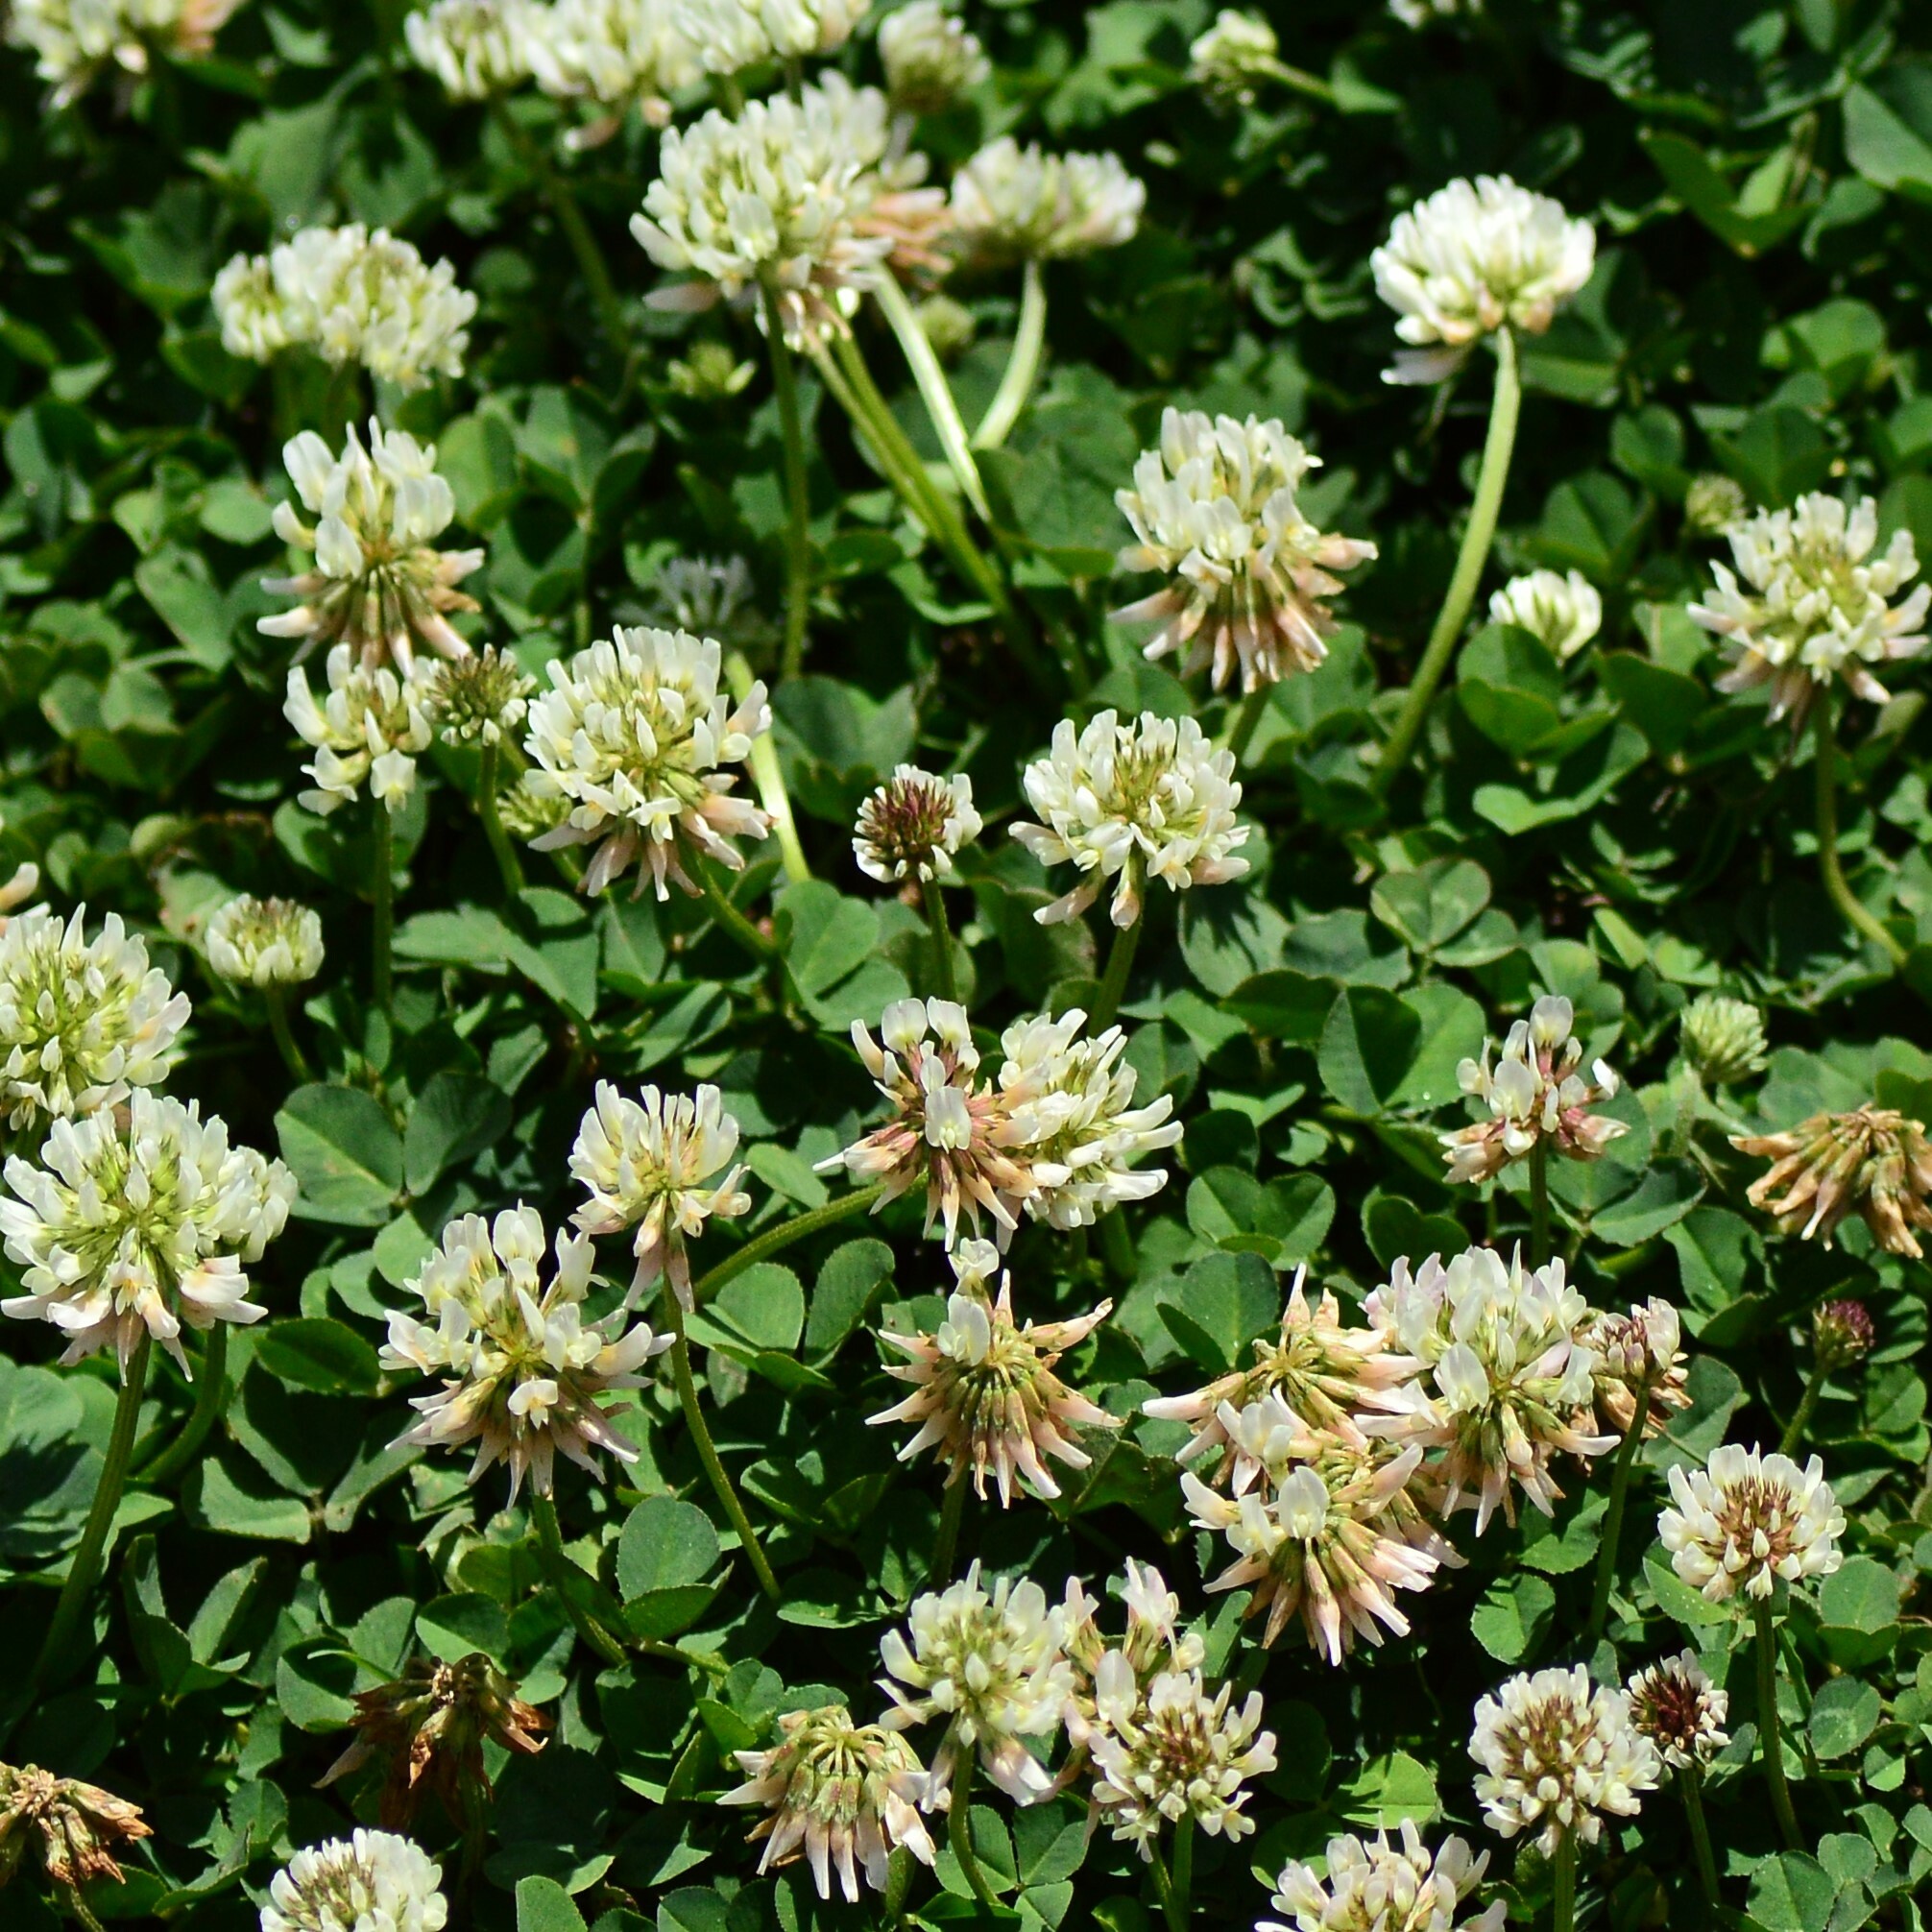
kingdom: Plantae
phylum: Tracheophyta
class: Magnoliopsida
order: Fabales
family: Fabaceae
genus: Trifolium
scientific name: Trifolium repens
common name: White clover
